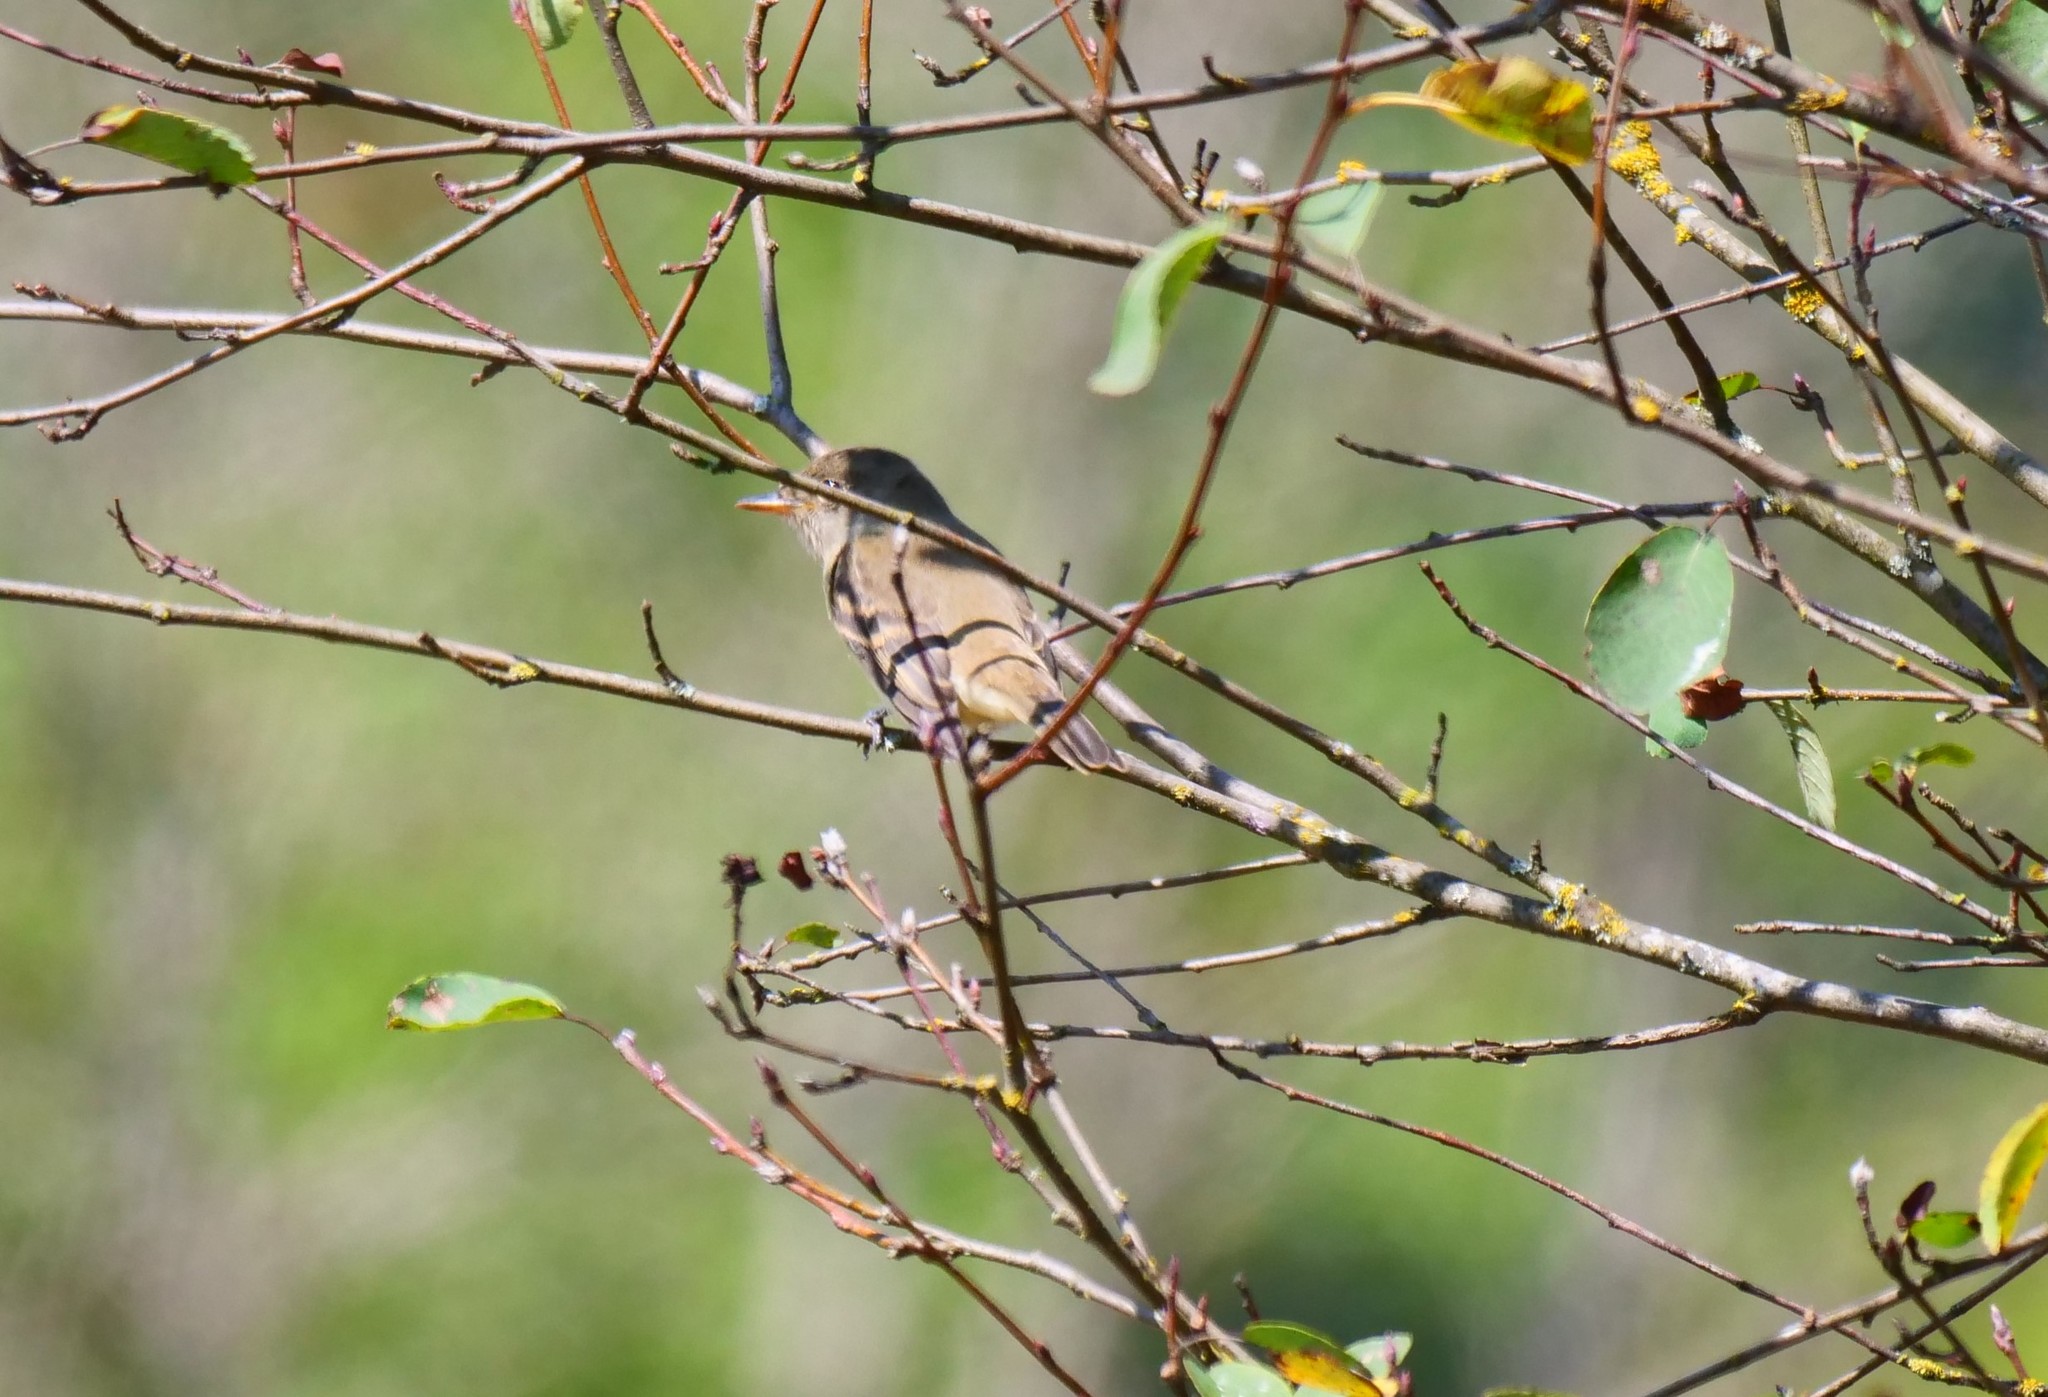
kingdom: Animalia
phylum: Chordata
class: Aves
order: Passeriformes
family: Tyrannidae
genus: Empidonax
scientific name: Empidonax traillii
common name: Willow flycatcher
